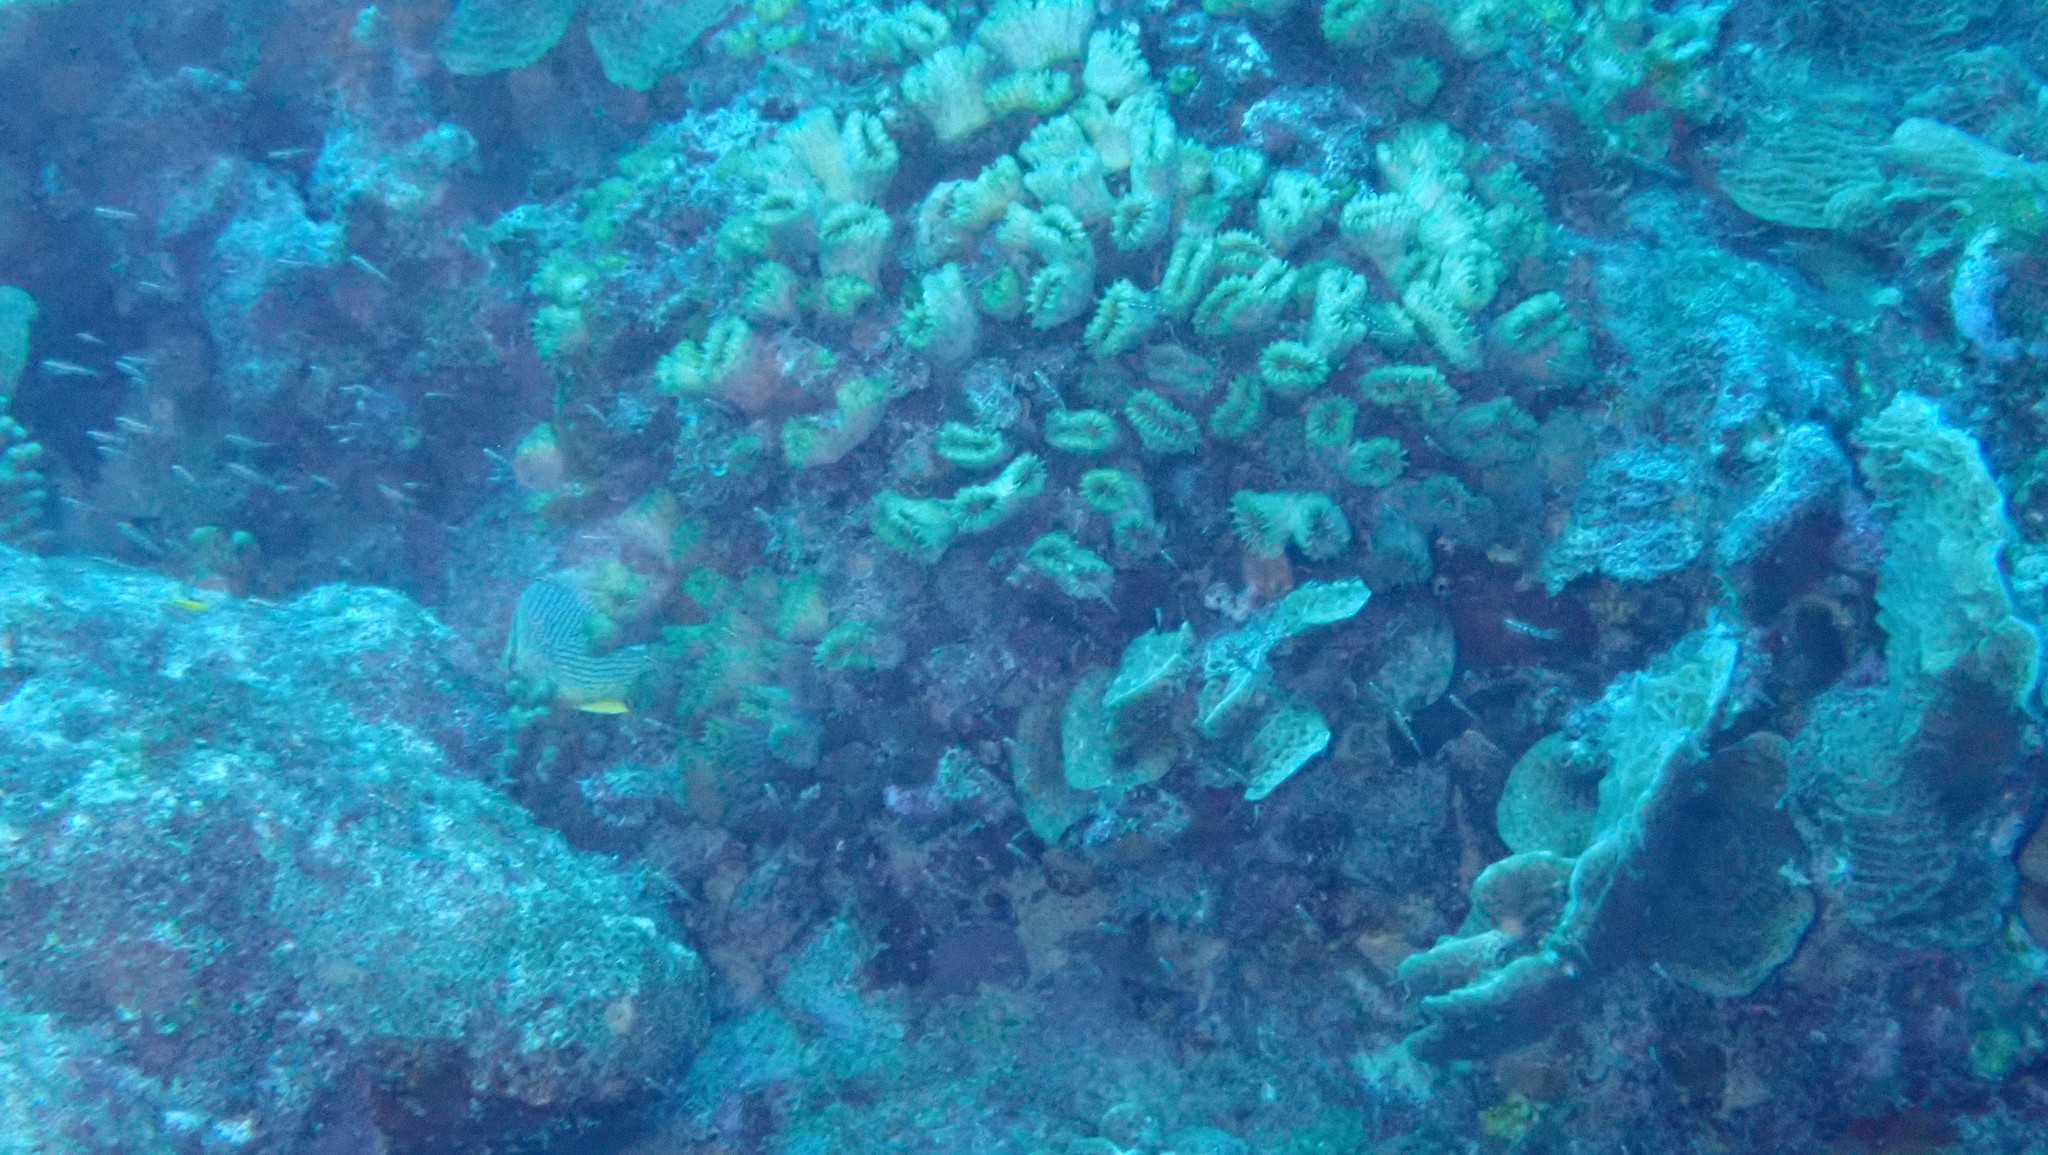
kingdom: Animalia
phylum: Cnidaria
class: Anthozoa
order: Scleractinia
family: Meandrinidae
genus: Eusmilia
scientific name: Eusmilia fastigiata
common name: Smooth flower coral
